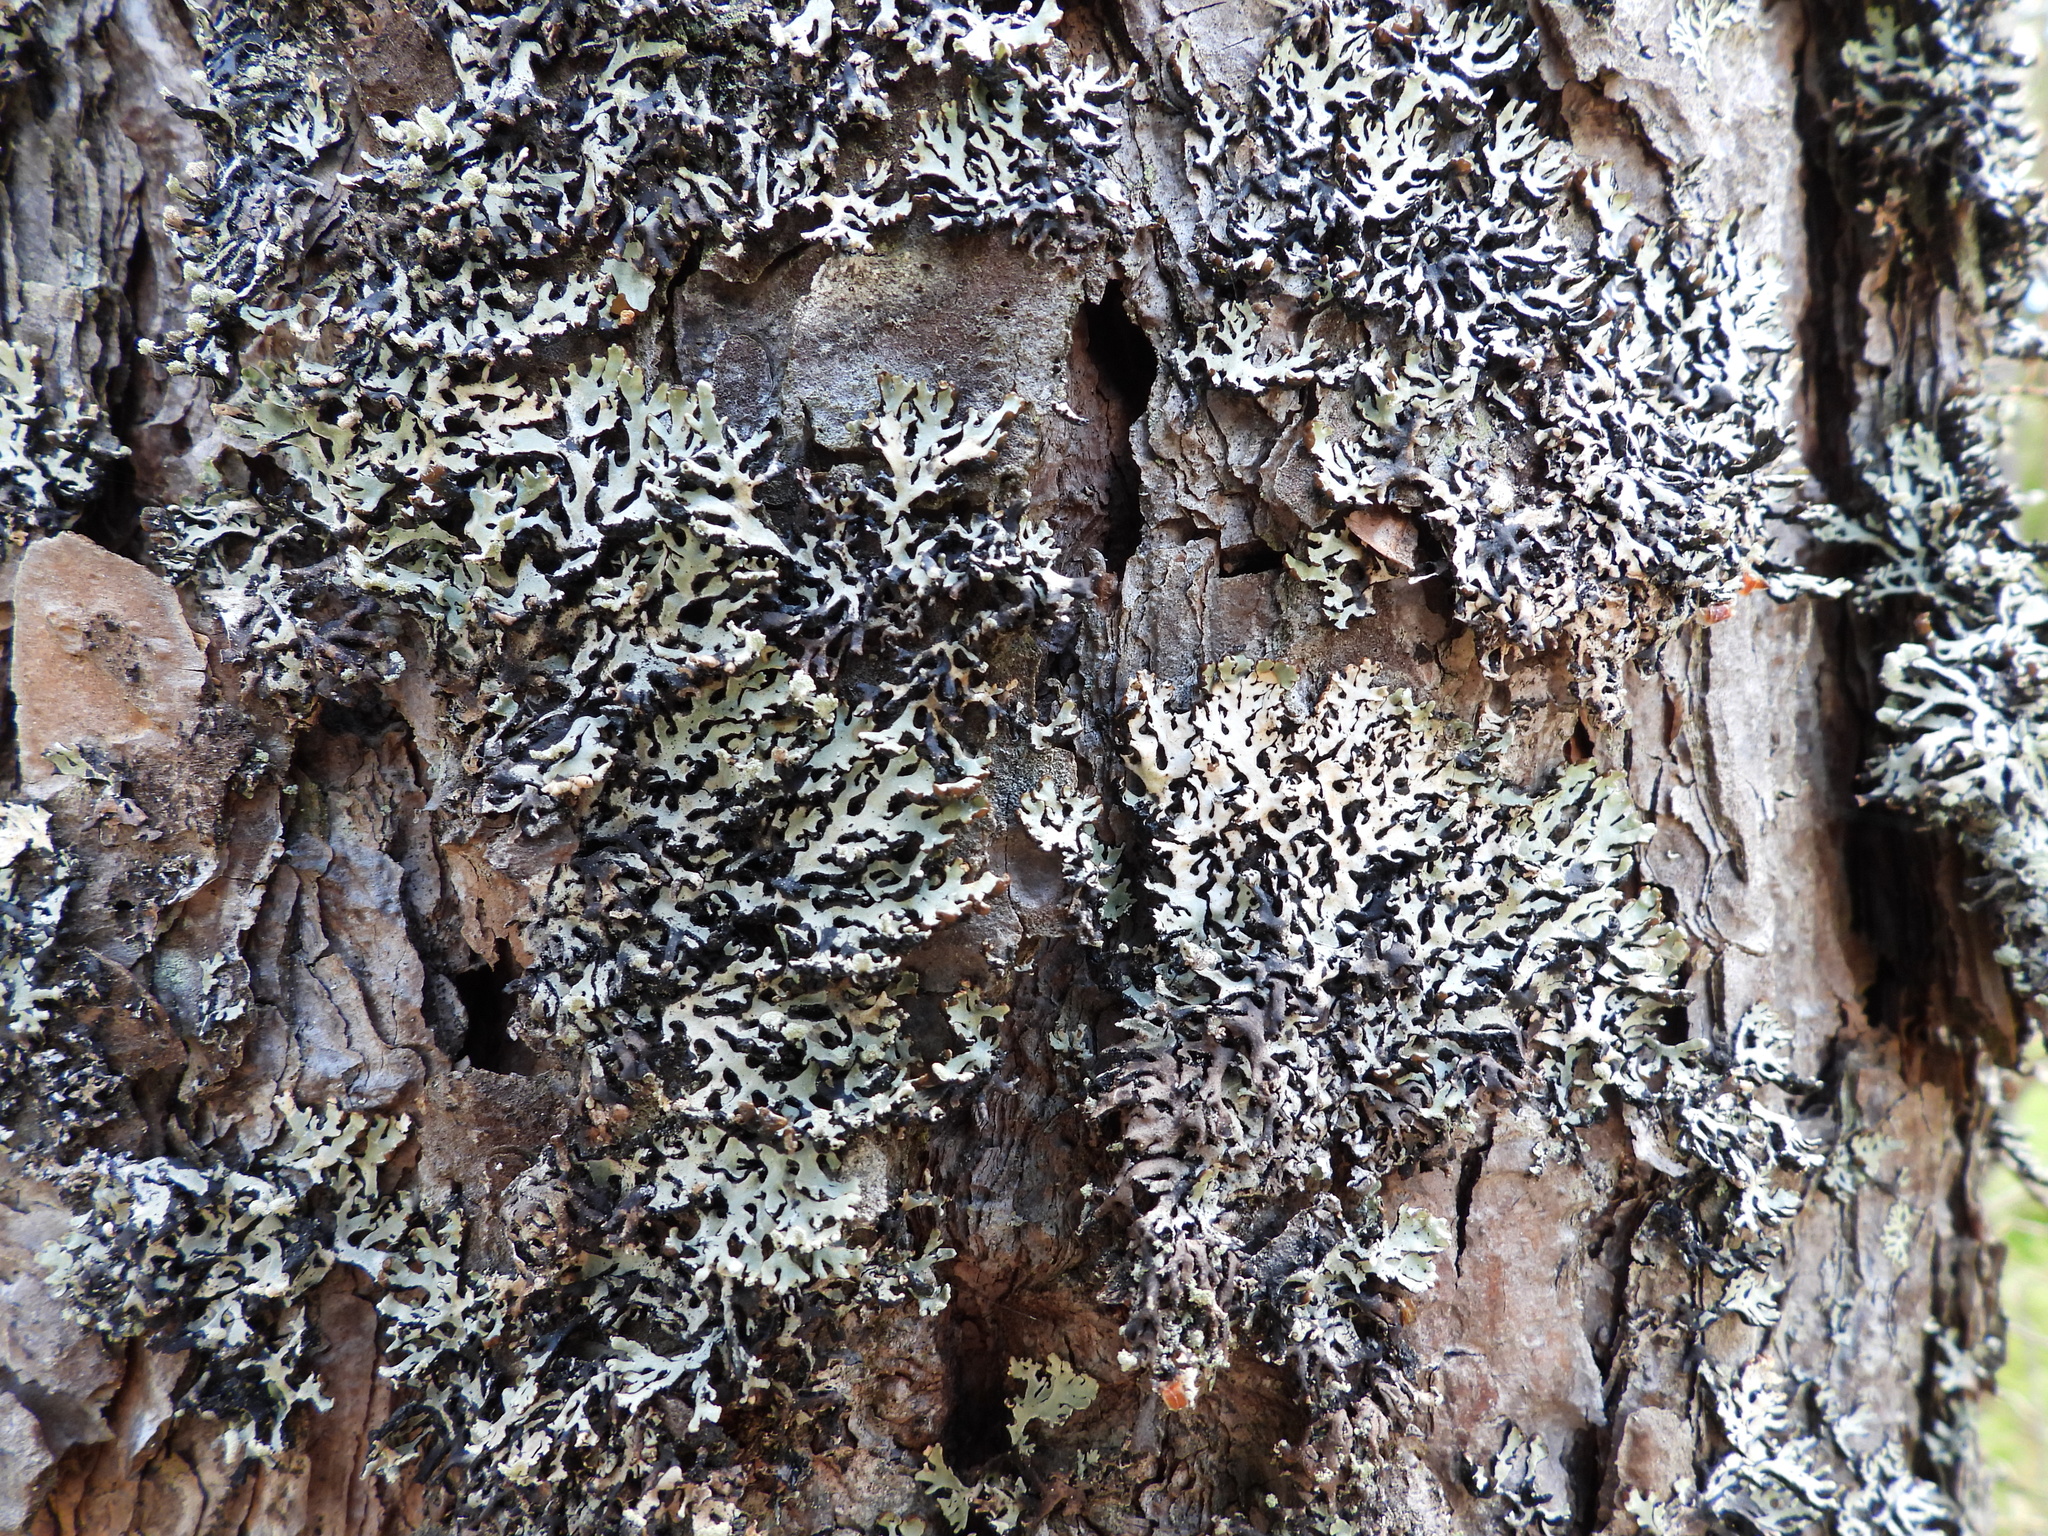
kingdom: Fungi
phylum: Ascomycota
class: Lecanoromycetes
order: Lecanorales
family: Parmeliaceae
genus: Hypogymnia
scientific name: Hypogymnia physodes
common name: Dark crottle
